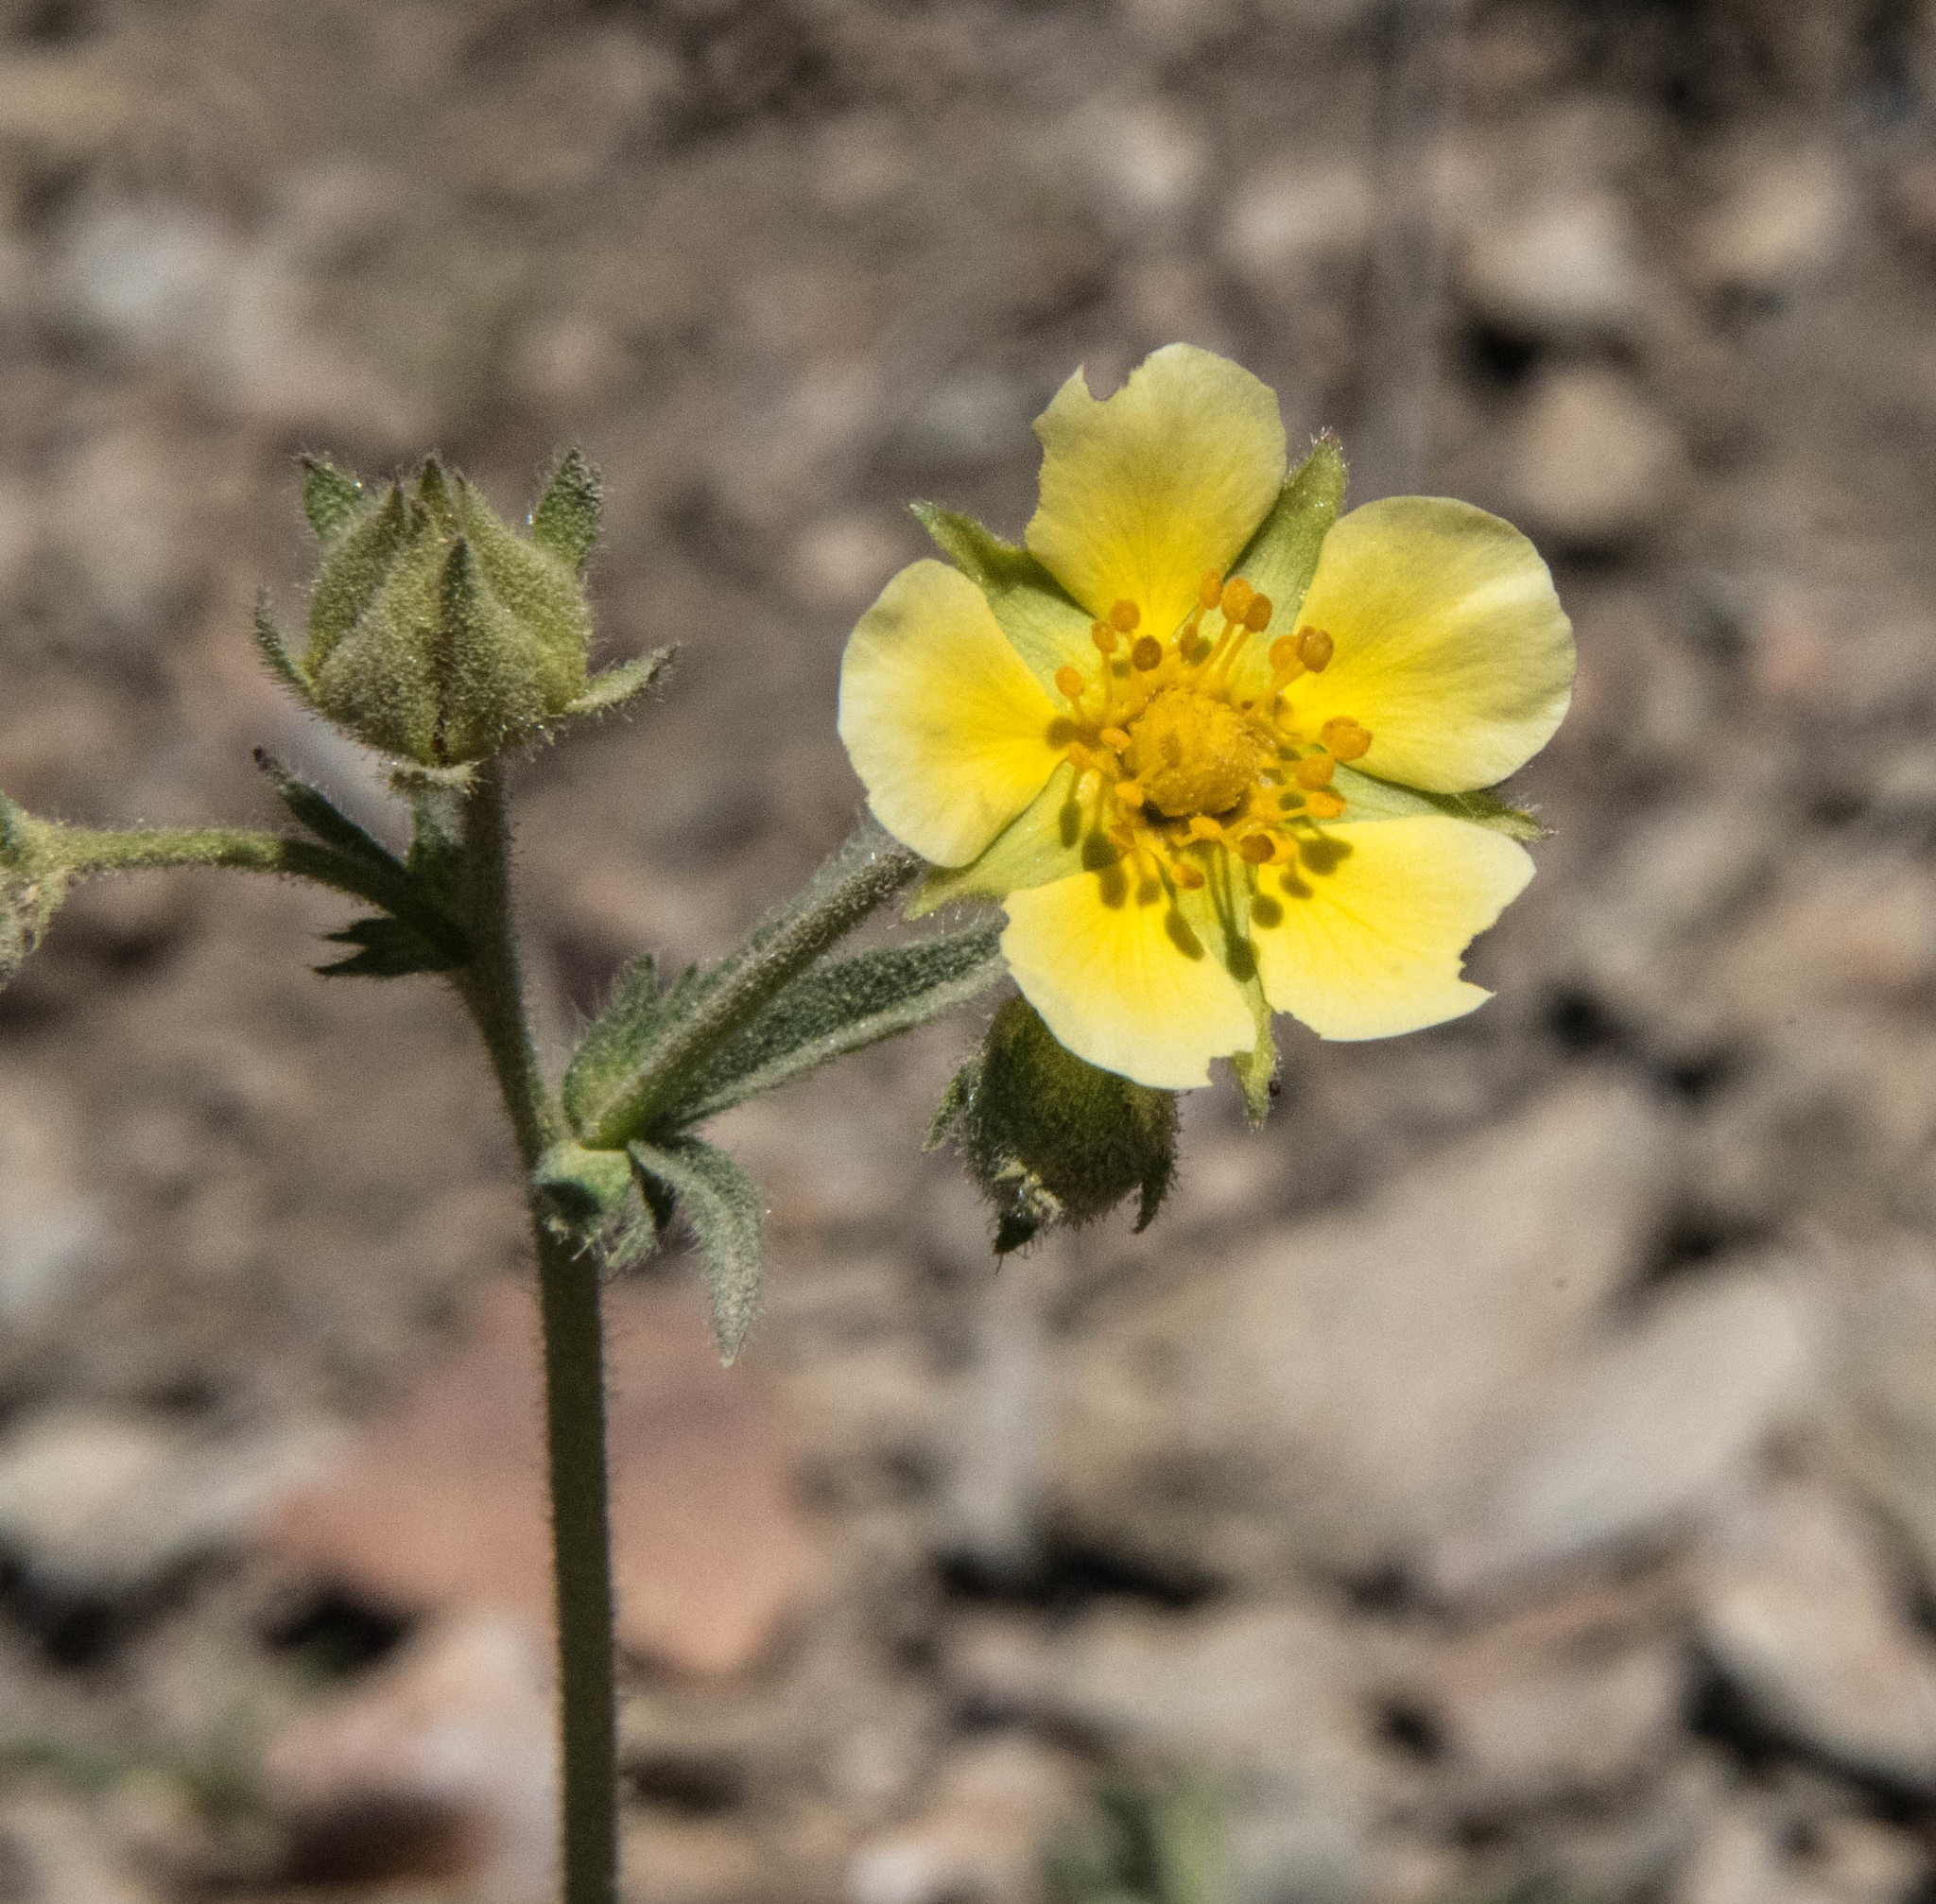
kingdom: Plantae
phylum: Tracheophyta
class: Magnoliopsida
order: Rosales
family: Rosaceae
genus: Drymocallis
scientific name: Drymocallis glandulosa
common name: Sticky cinquefoil
